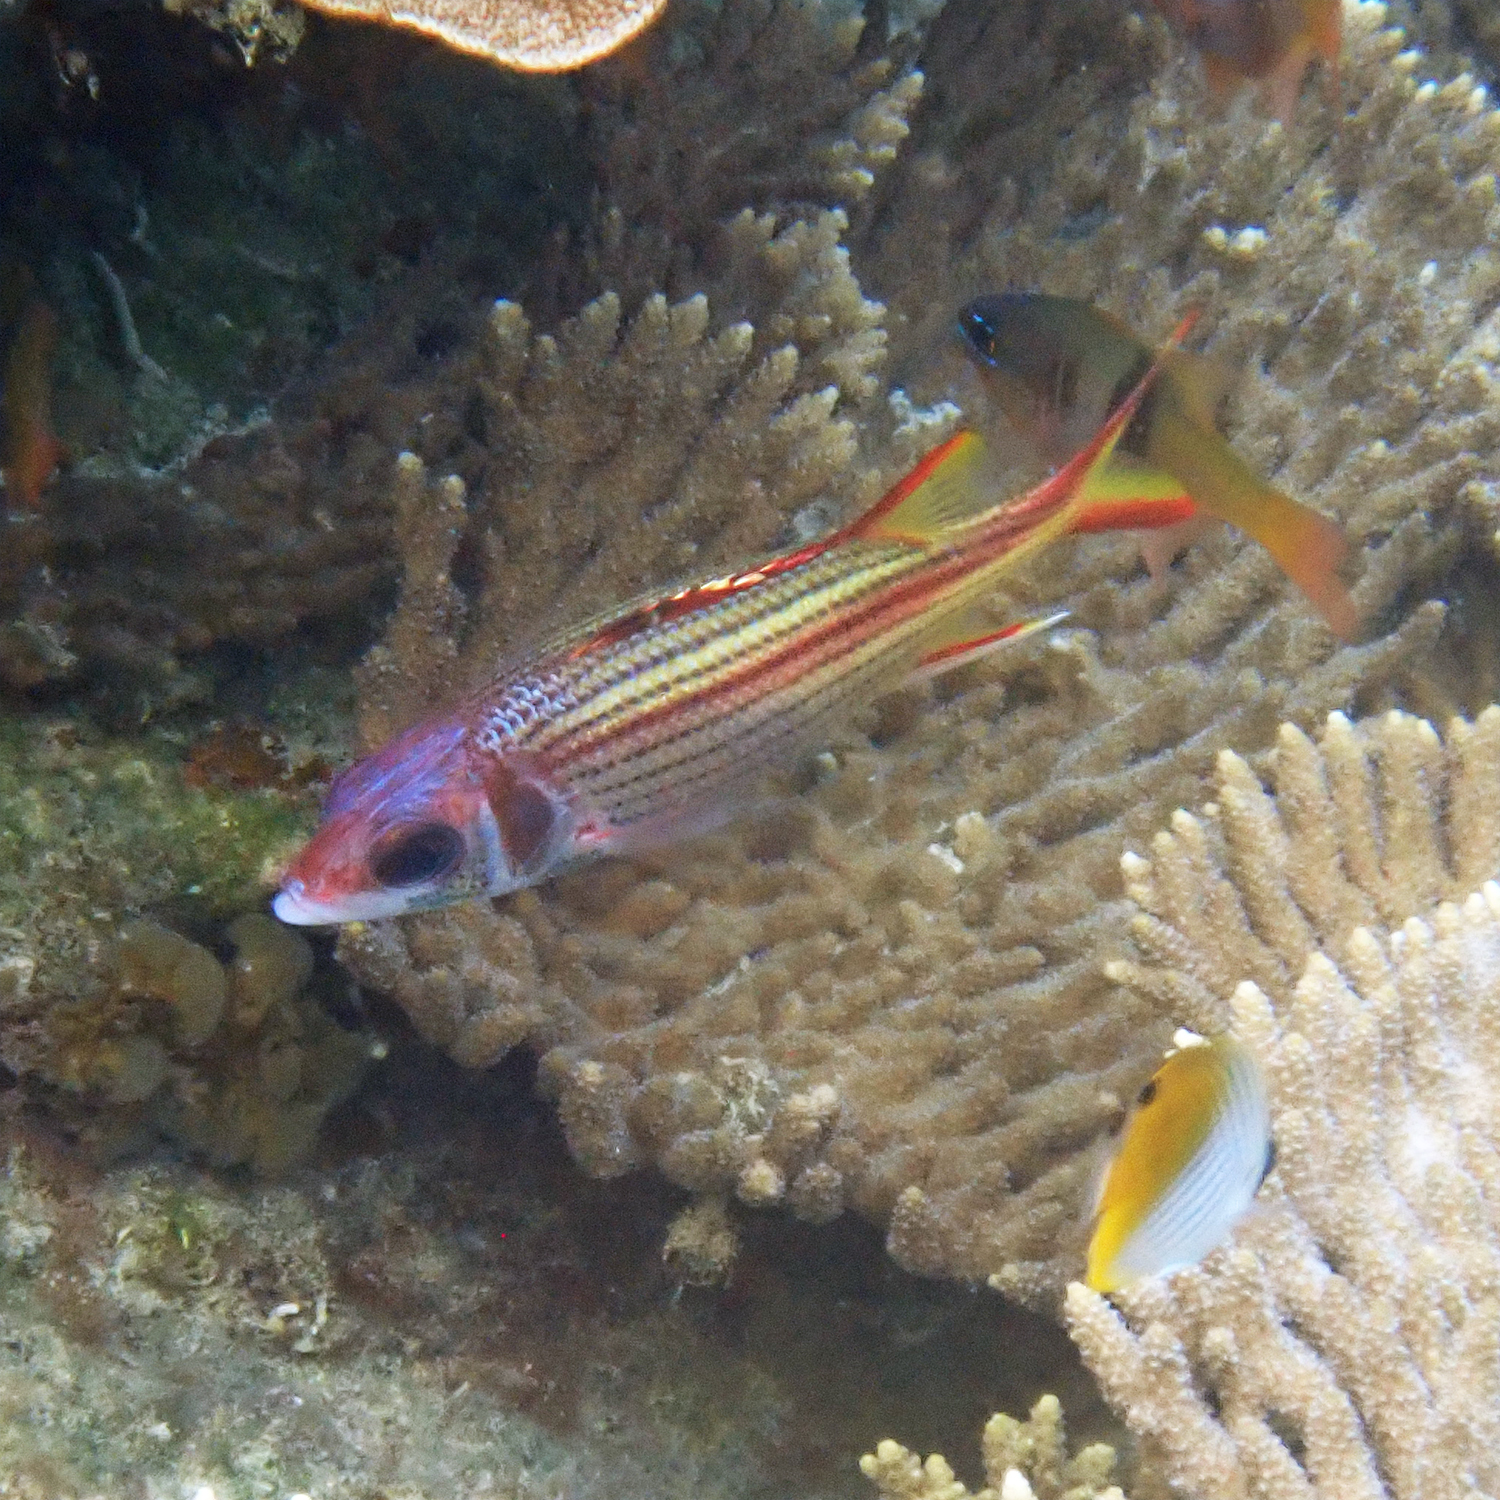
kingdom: Animalia
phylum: Chordata
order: Beryciformes
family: Holocentridae
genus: Neoniphon
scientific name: Neoniphon sammara
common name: Sammara squirrelfish
